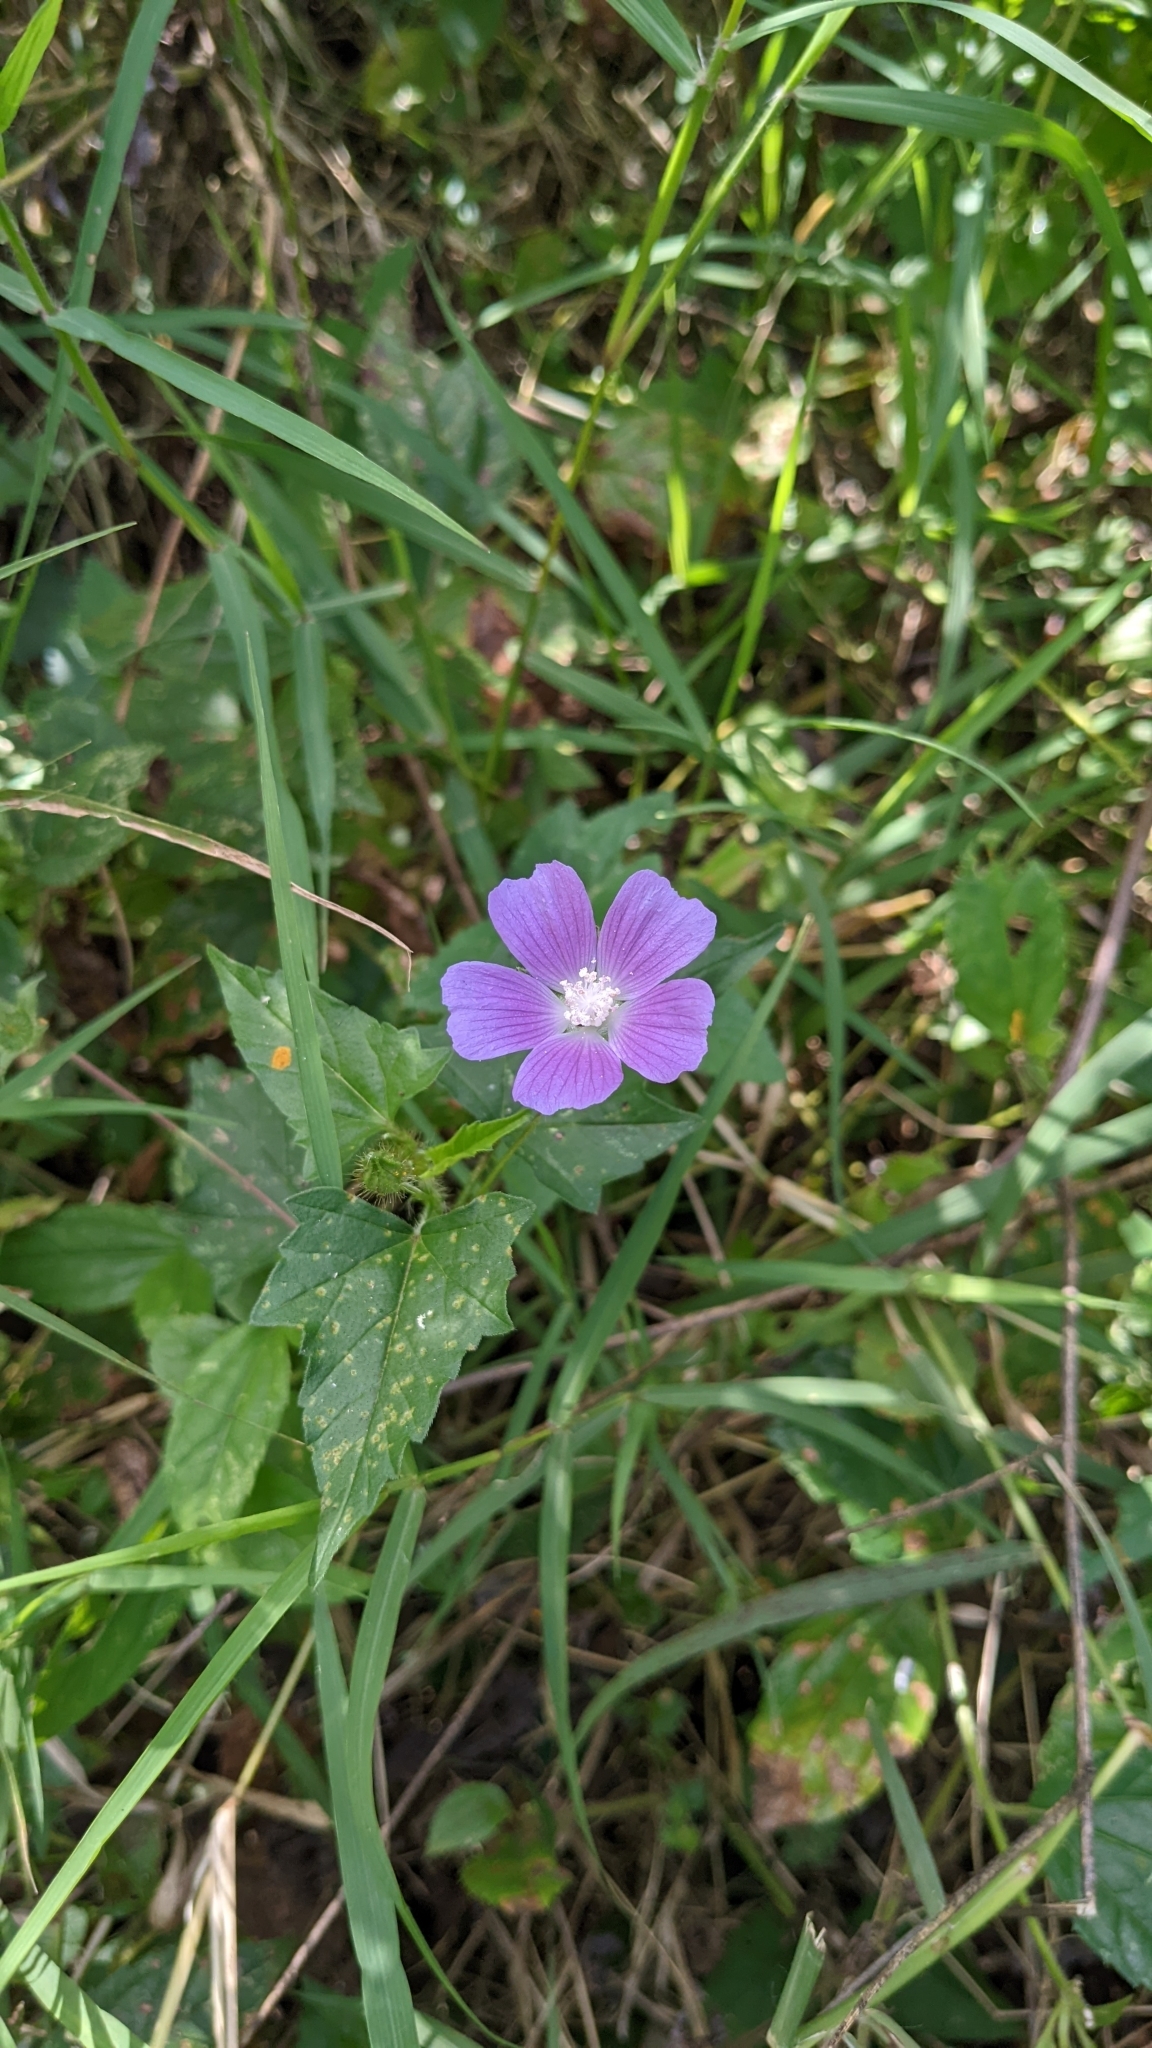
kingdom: Plantae
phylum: Tracheophyta
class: Magnoliopsida
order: Malvales
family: Malvaceae
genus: Anoda
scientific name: Anoda cristata
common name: Spurred anoda
